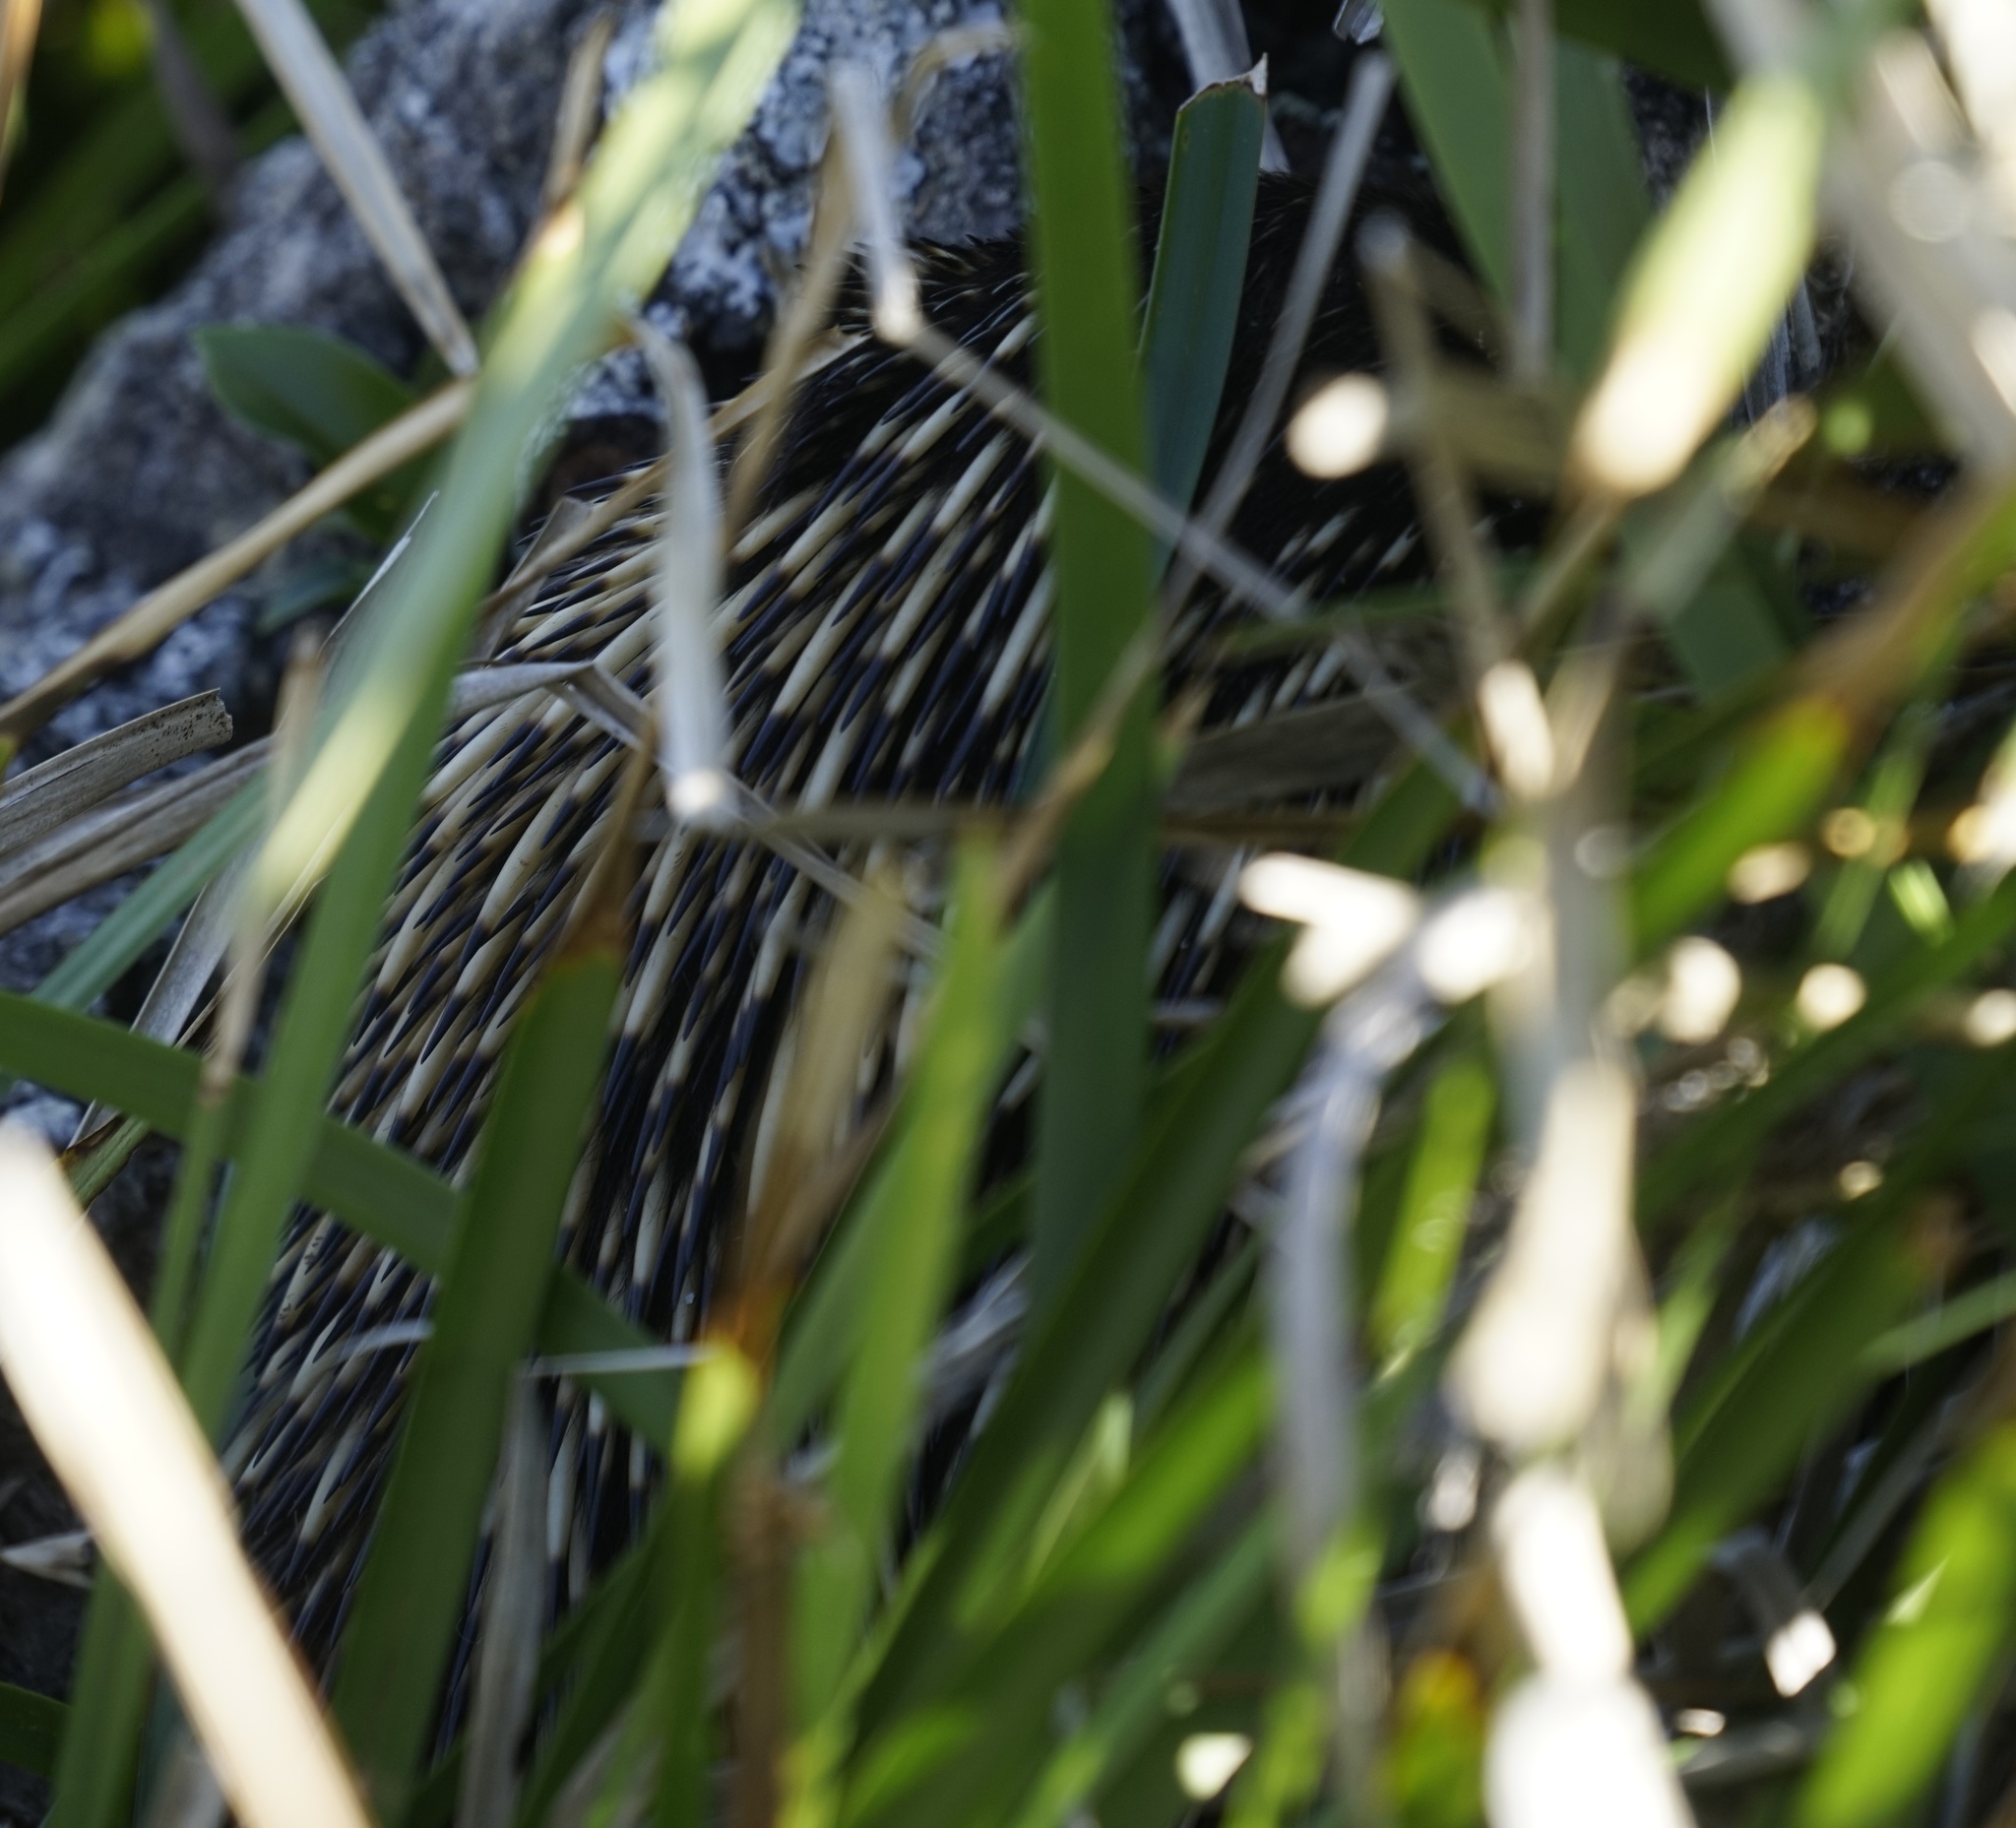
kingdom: Animalia
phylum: Chordata
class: Mammalia
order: Monotremata
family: Tachyglossidae
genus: Tachyglossus
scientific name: Tachyglossus aculeatus
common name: Short-beaked echidna
